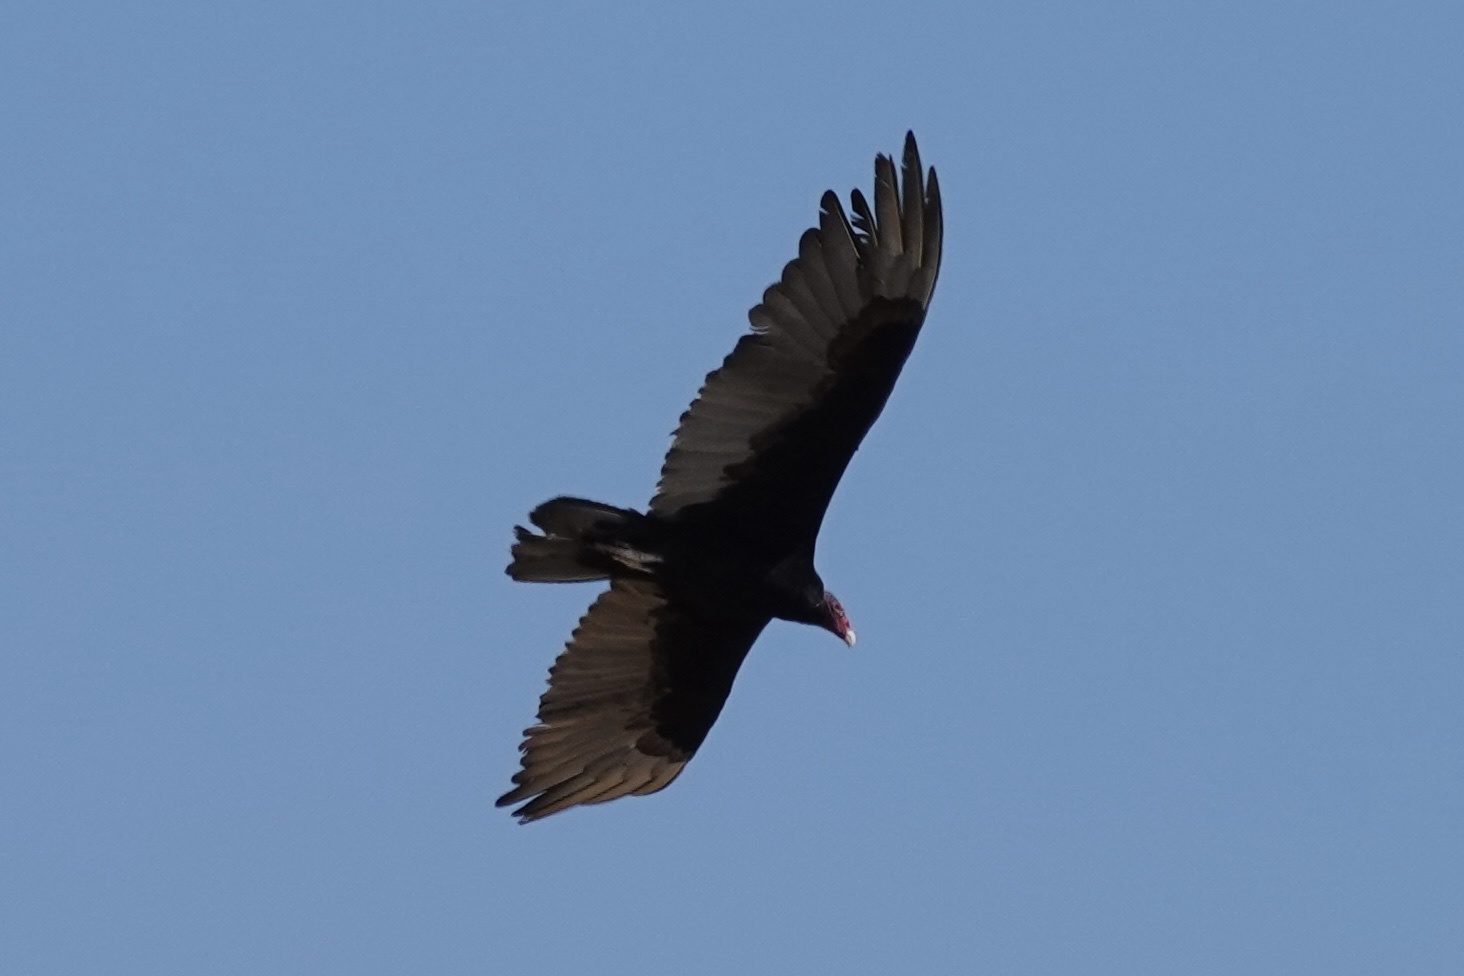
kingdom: Animalia
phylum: Chordata
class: Aves
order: Accipitriformes
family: Cathartidae
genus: Cathartes
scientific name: Cathartes aura
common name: Turkey vulture
